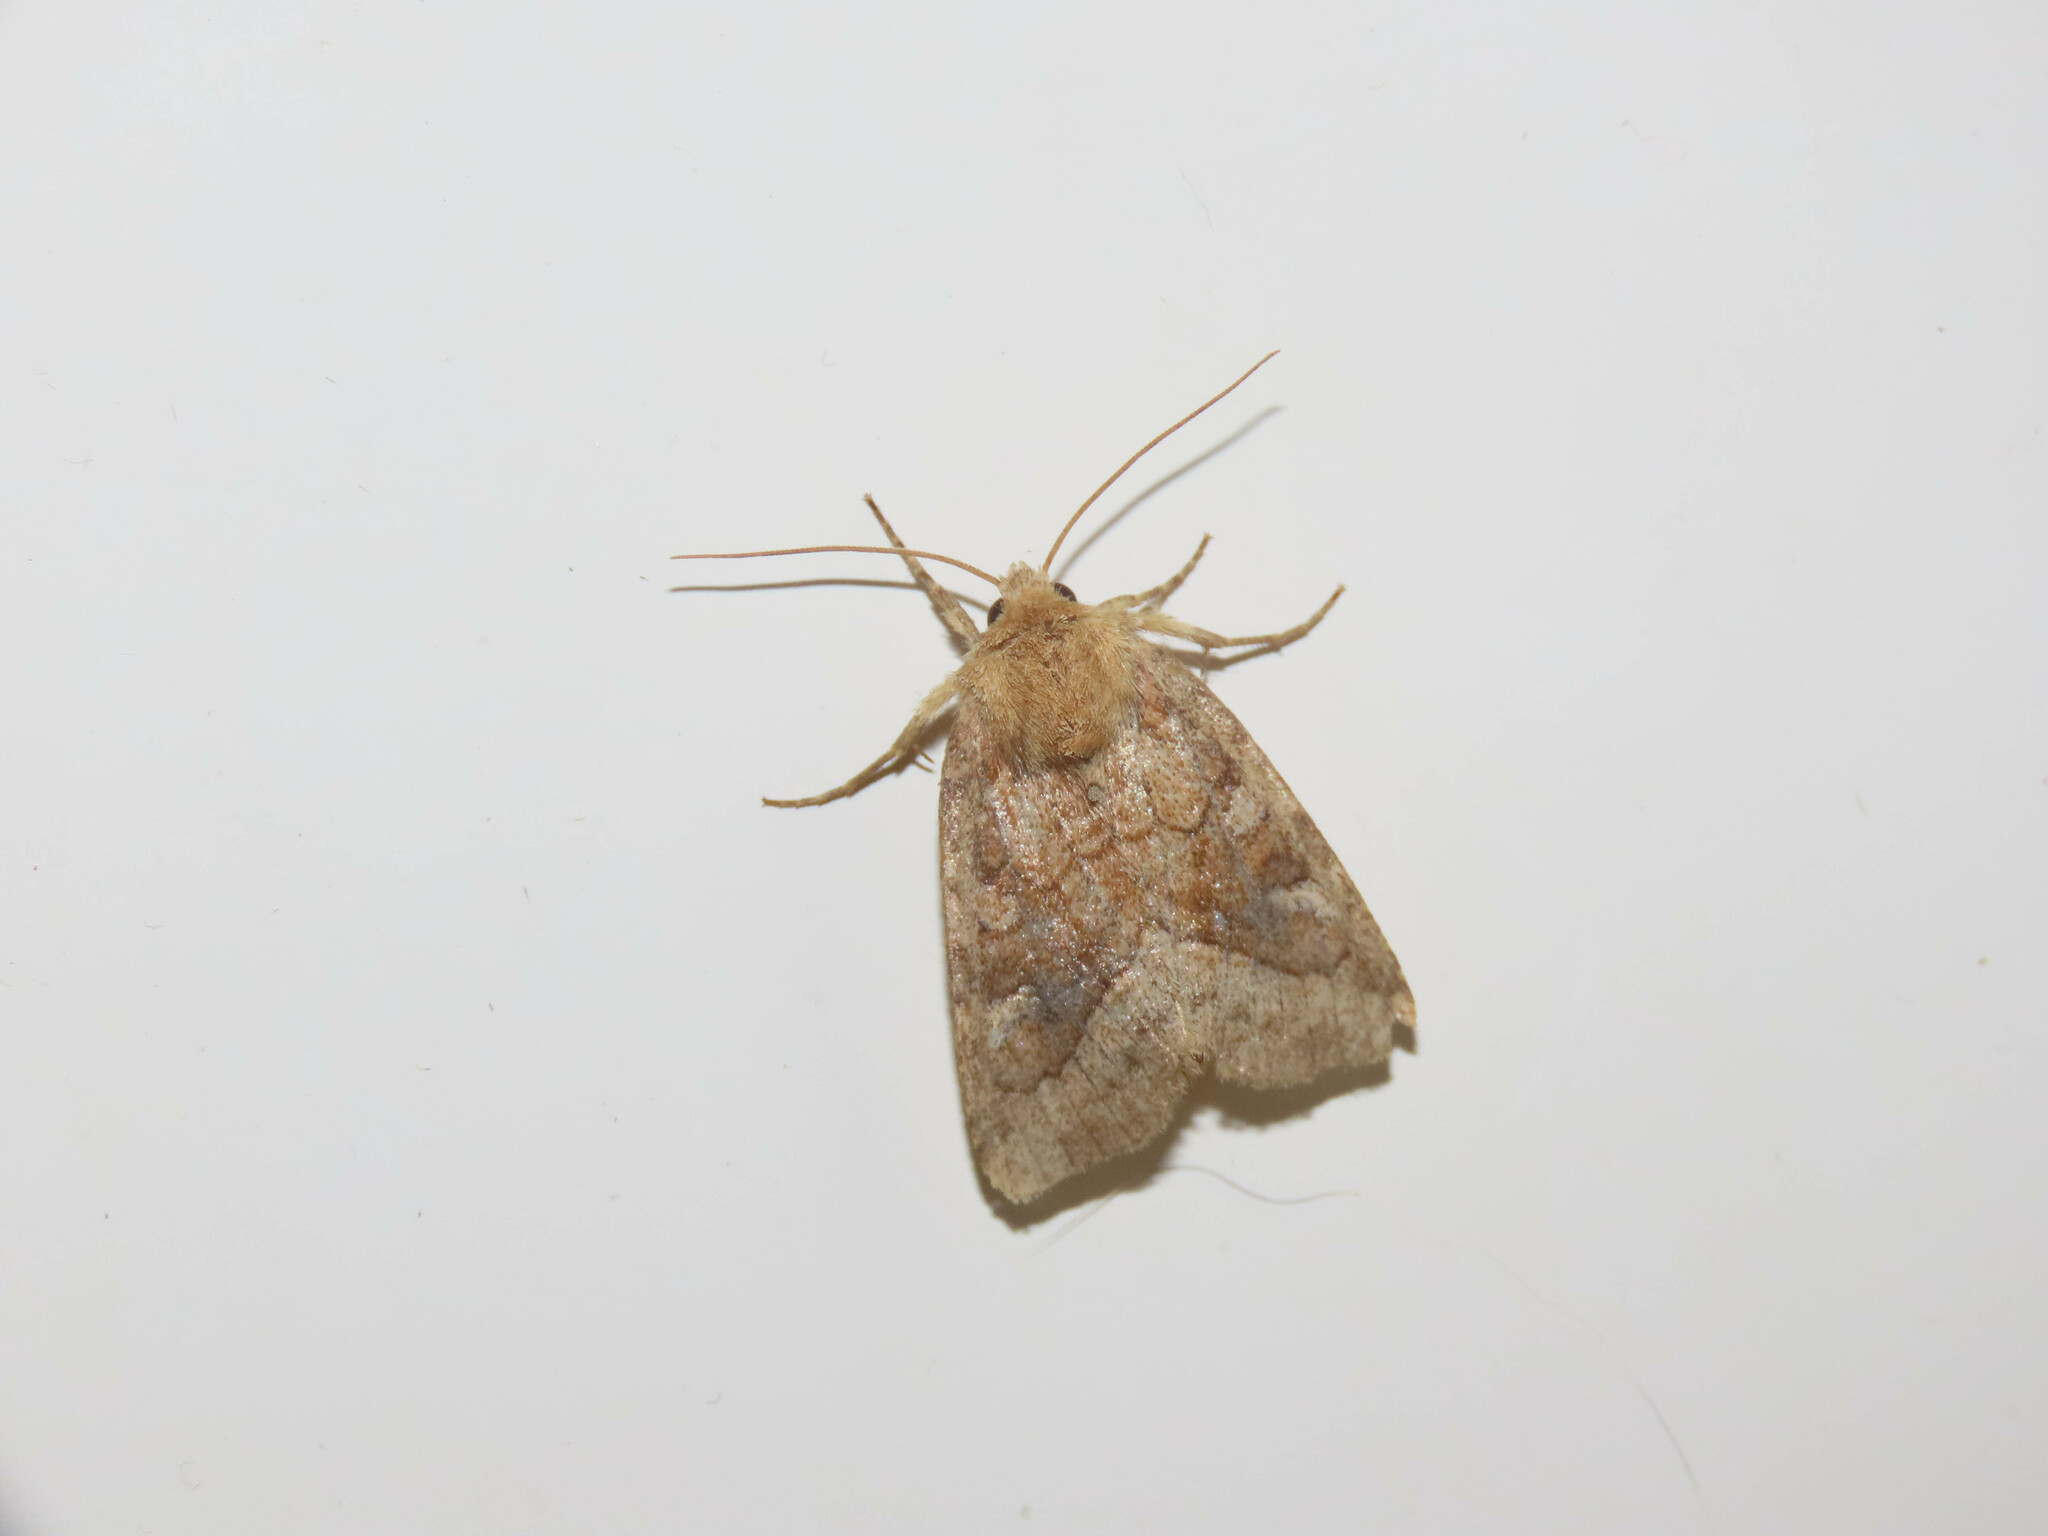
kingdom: Animalia
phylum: Arthropoda
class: Insecta
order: Lepidoptera
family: Noctuidae
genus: Amphipoea
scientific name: Amphipoea americana
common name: American ear moth
